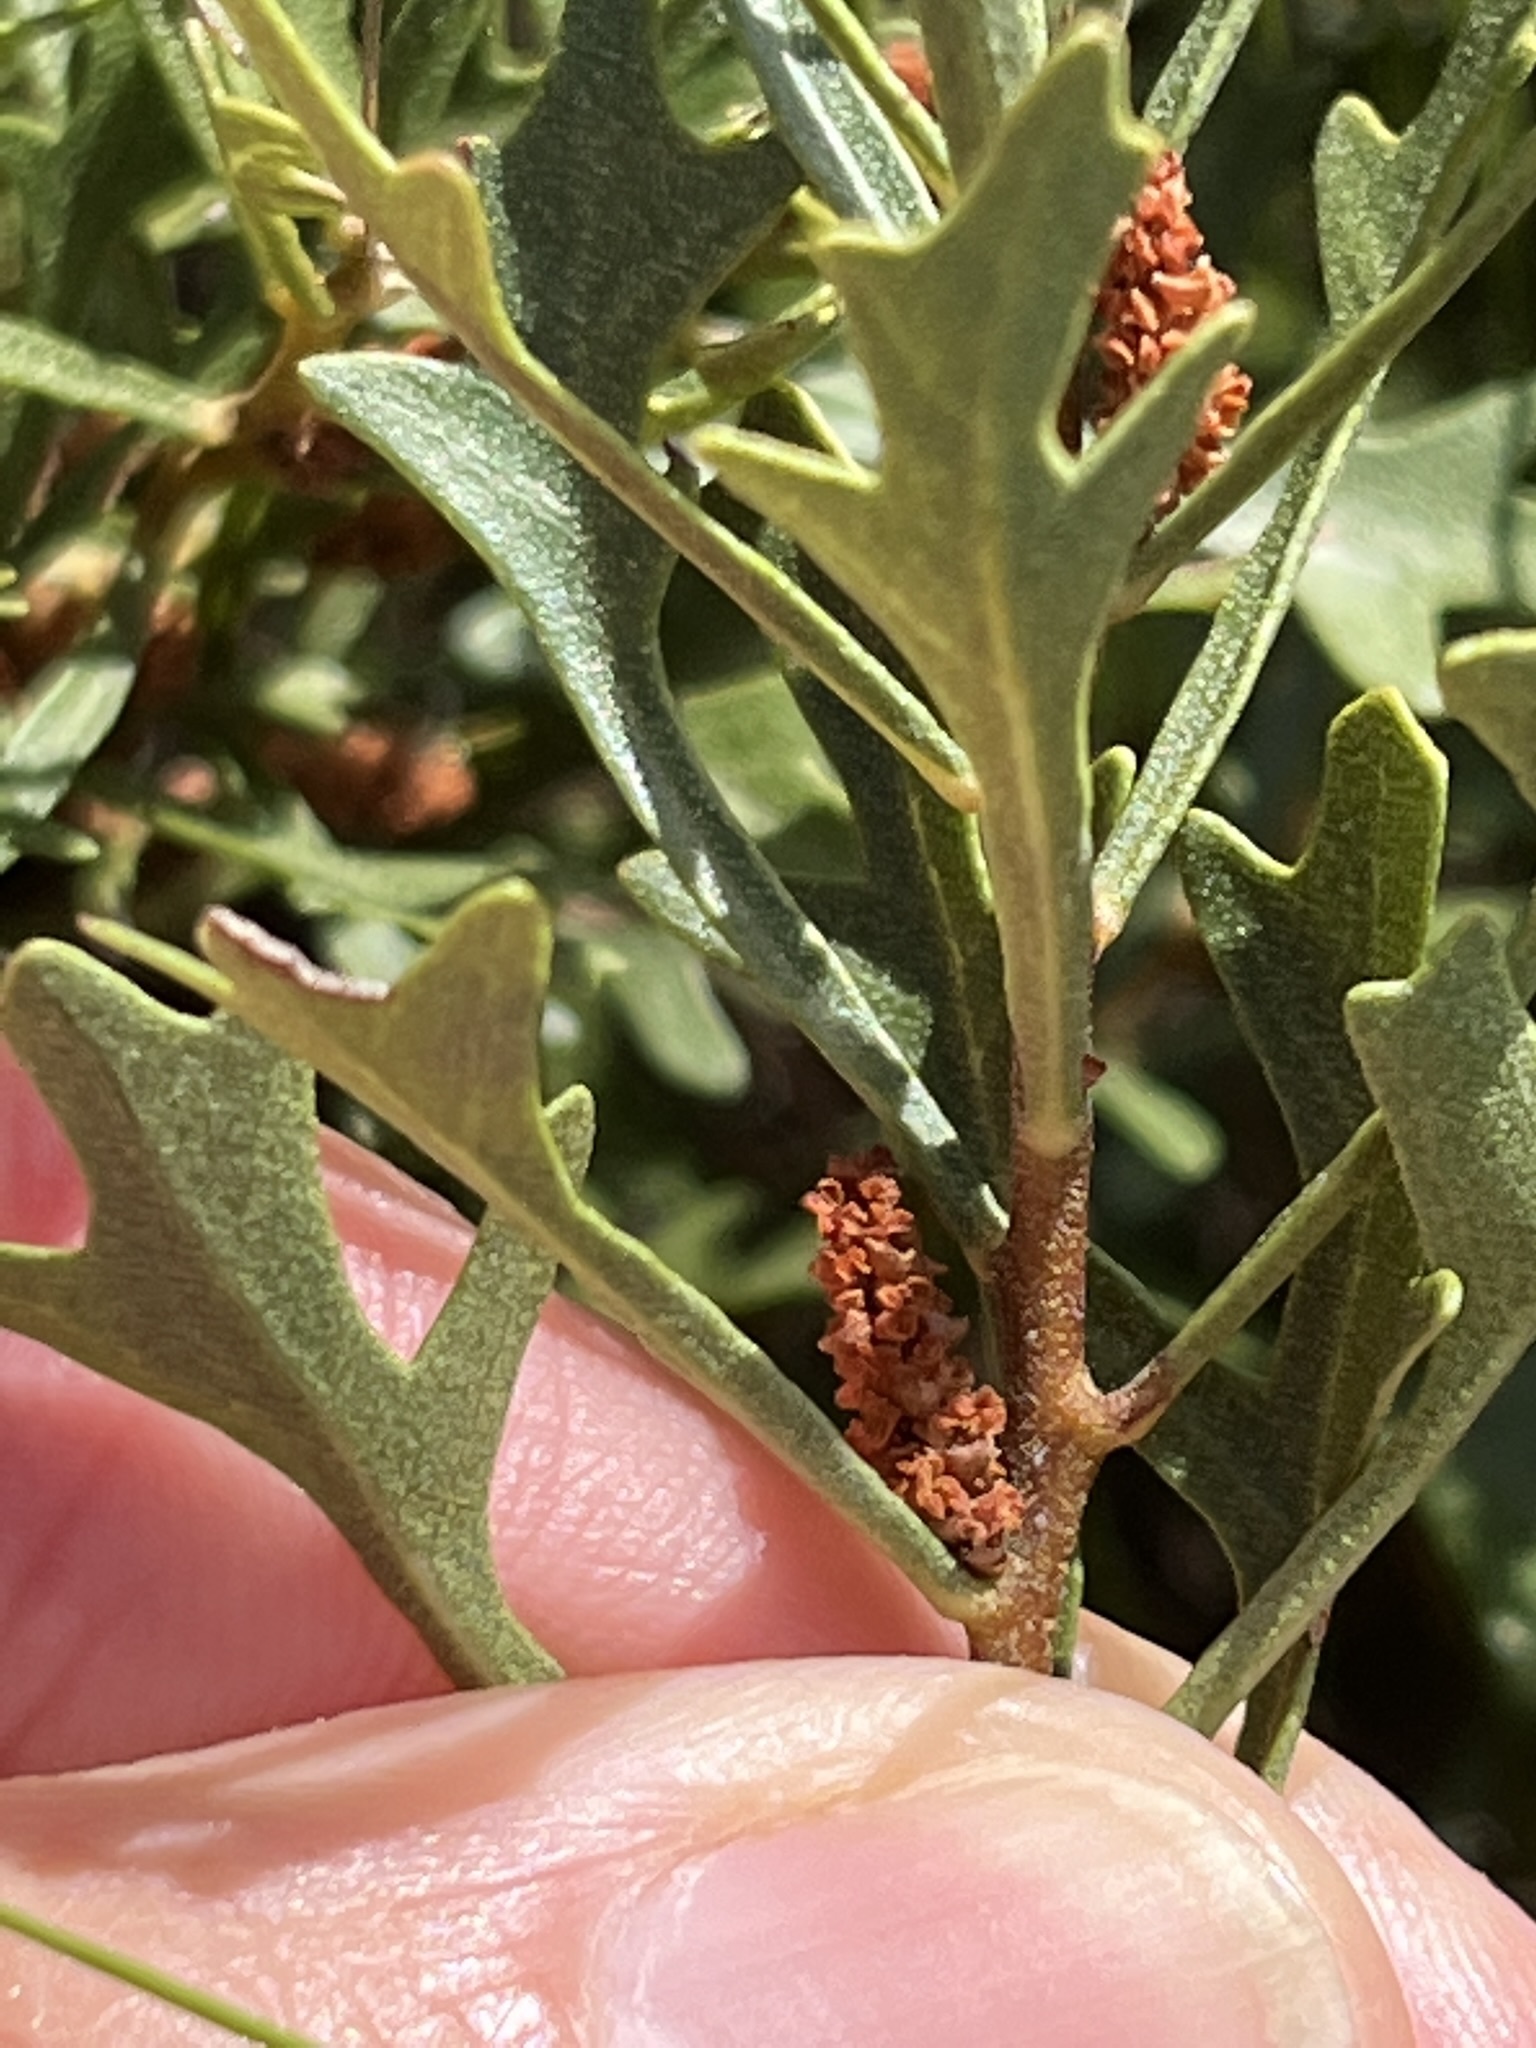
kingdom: Plantae
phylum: Tracheophyta
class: Magnoliopsida
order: Fagales
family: Myricaceae
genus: Morella
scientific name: Morella quercifolia
